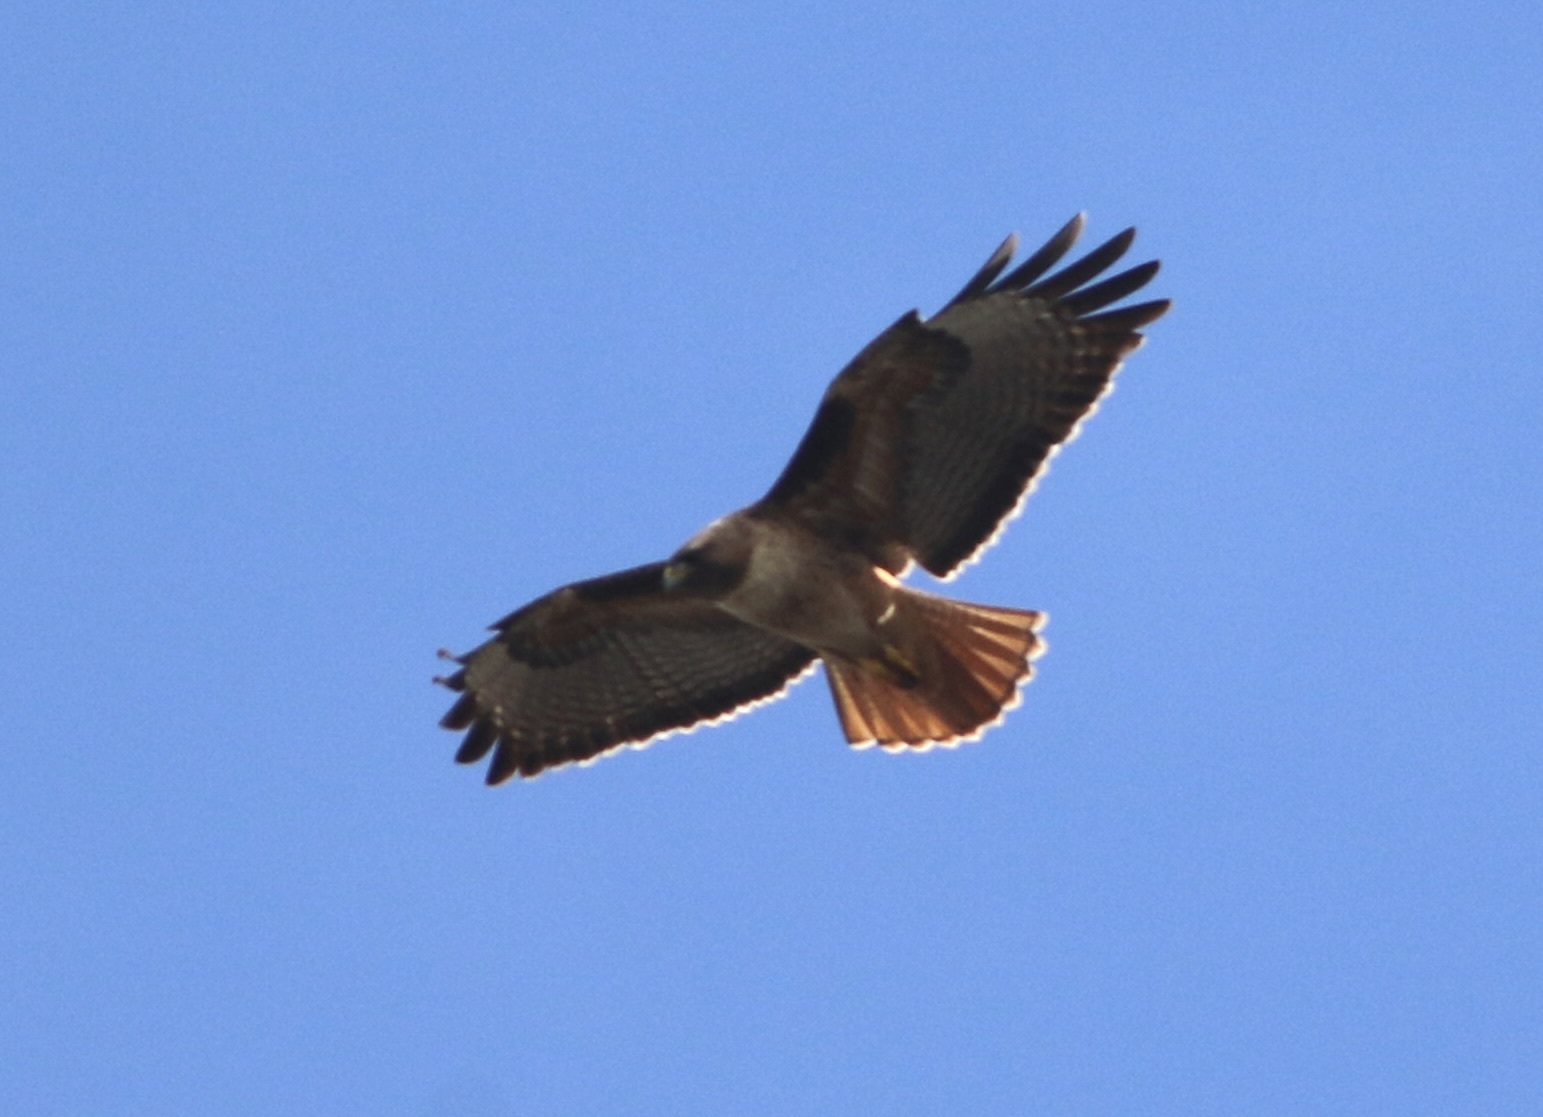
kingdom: Animalia
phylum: Chordata
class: Aves
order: Accipitriformes
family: Accipitridae
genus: Buteo
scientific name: Buteo jamaicensis
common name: Red-tailed hawk
